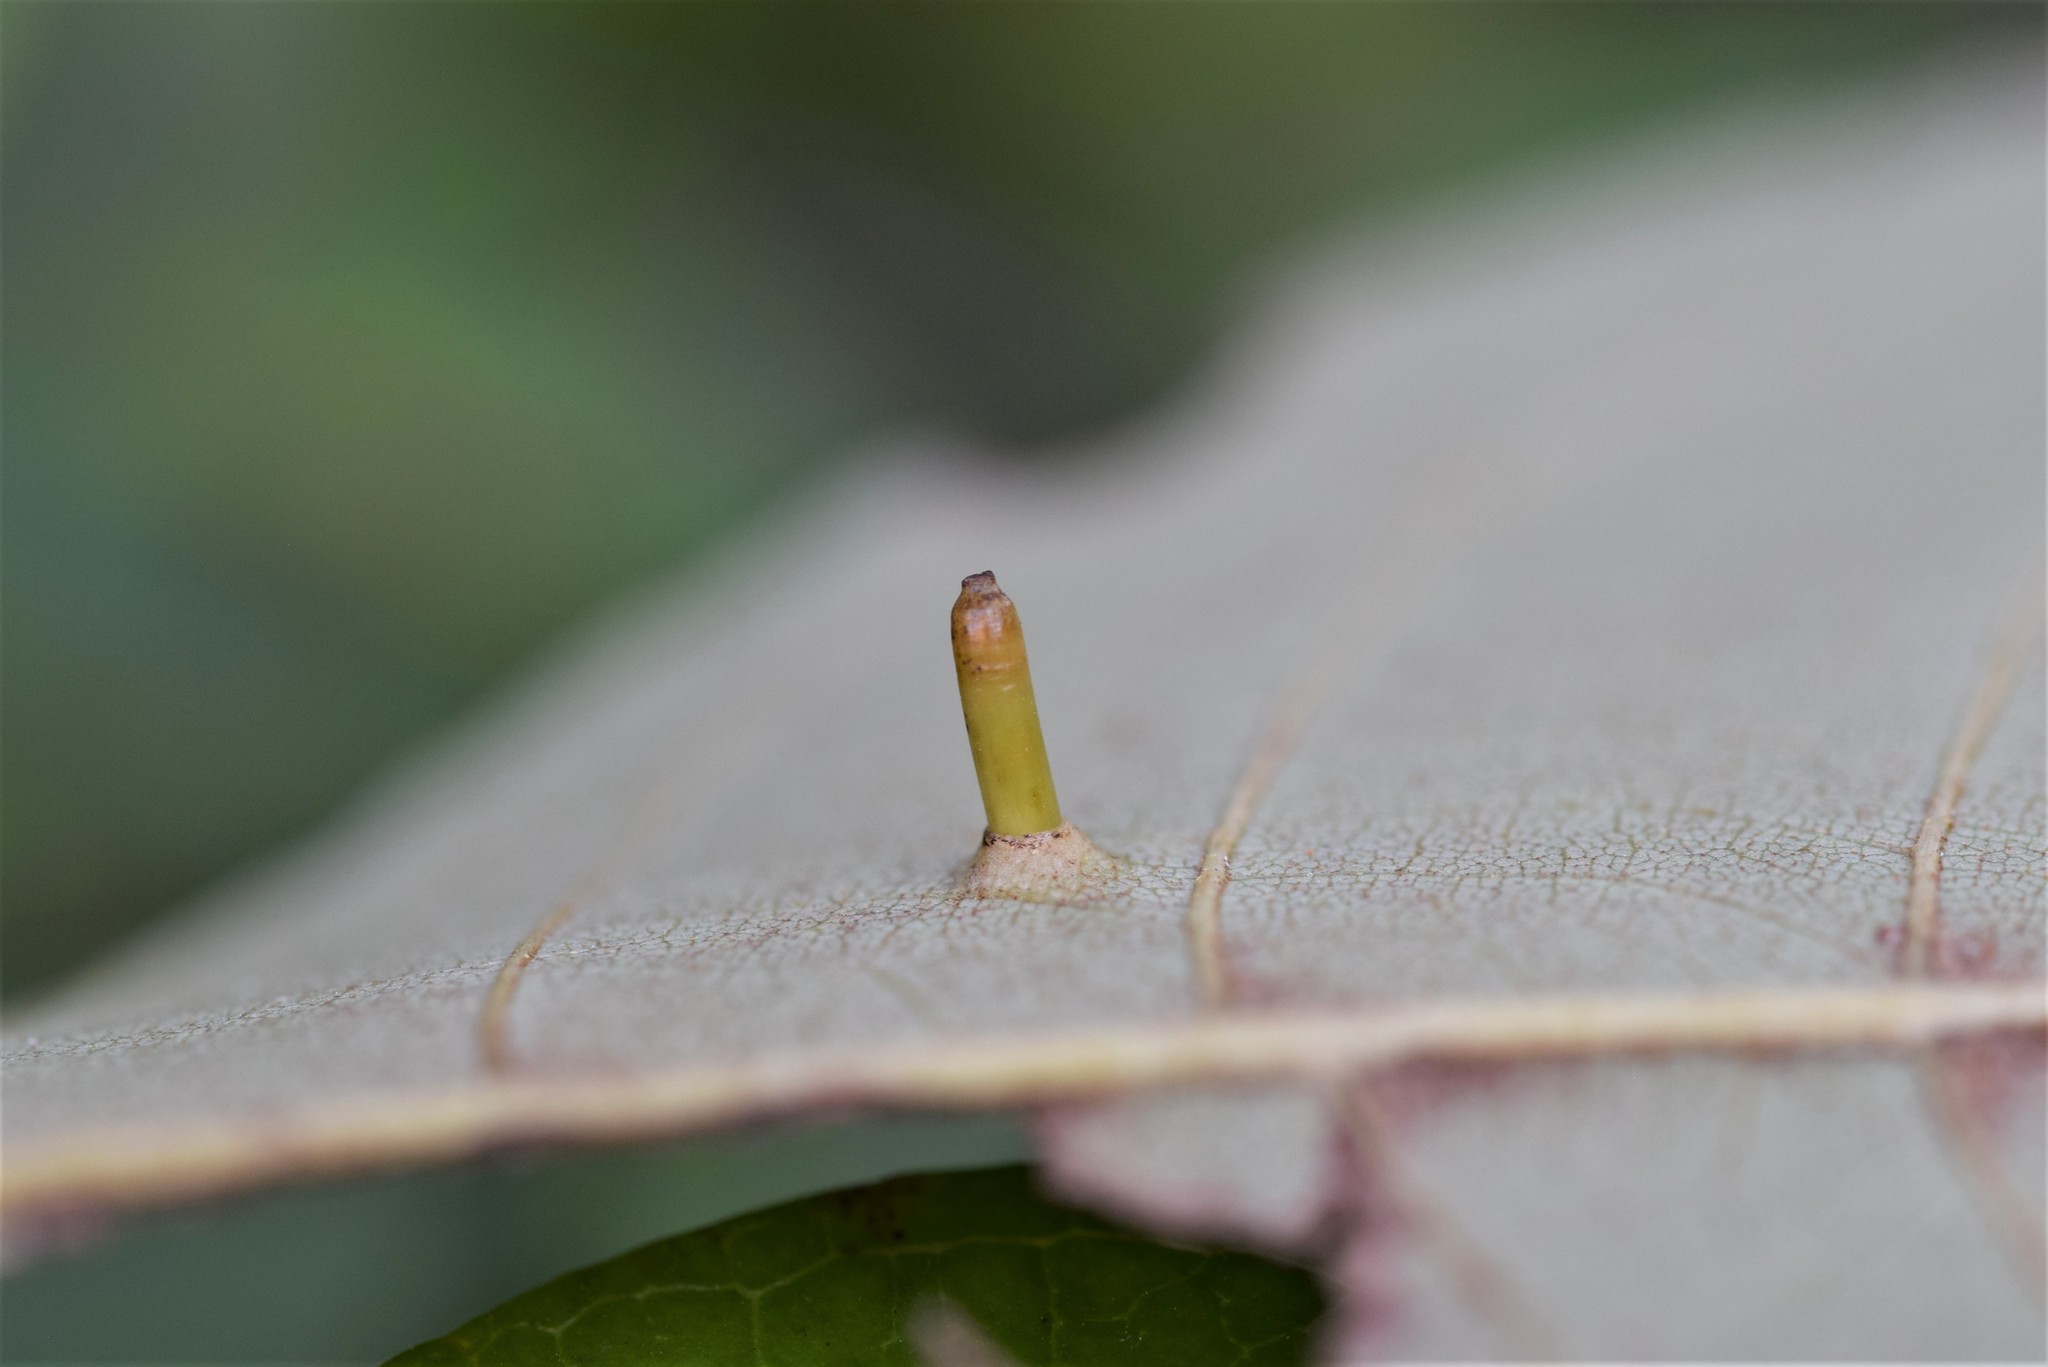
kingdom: Animalia
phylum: Arthropoda
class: Insecta
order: Diptera
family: Cecidomyiidae
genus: Caryomyia
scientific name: Caryomyia tubicola
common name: Hickory bullet gall midge
